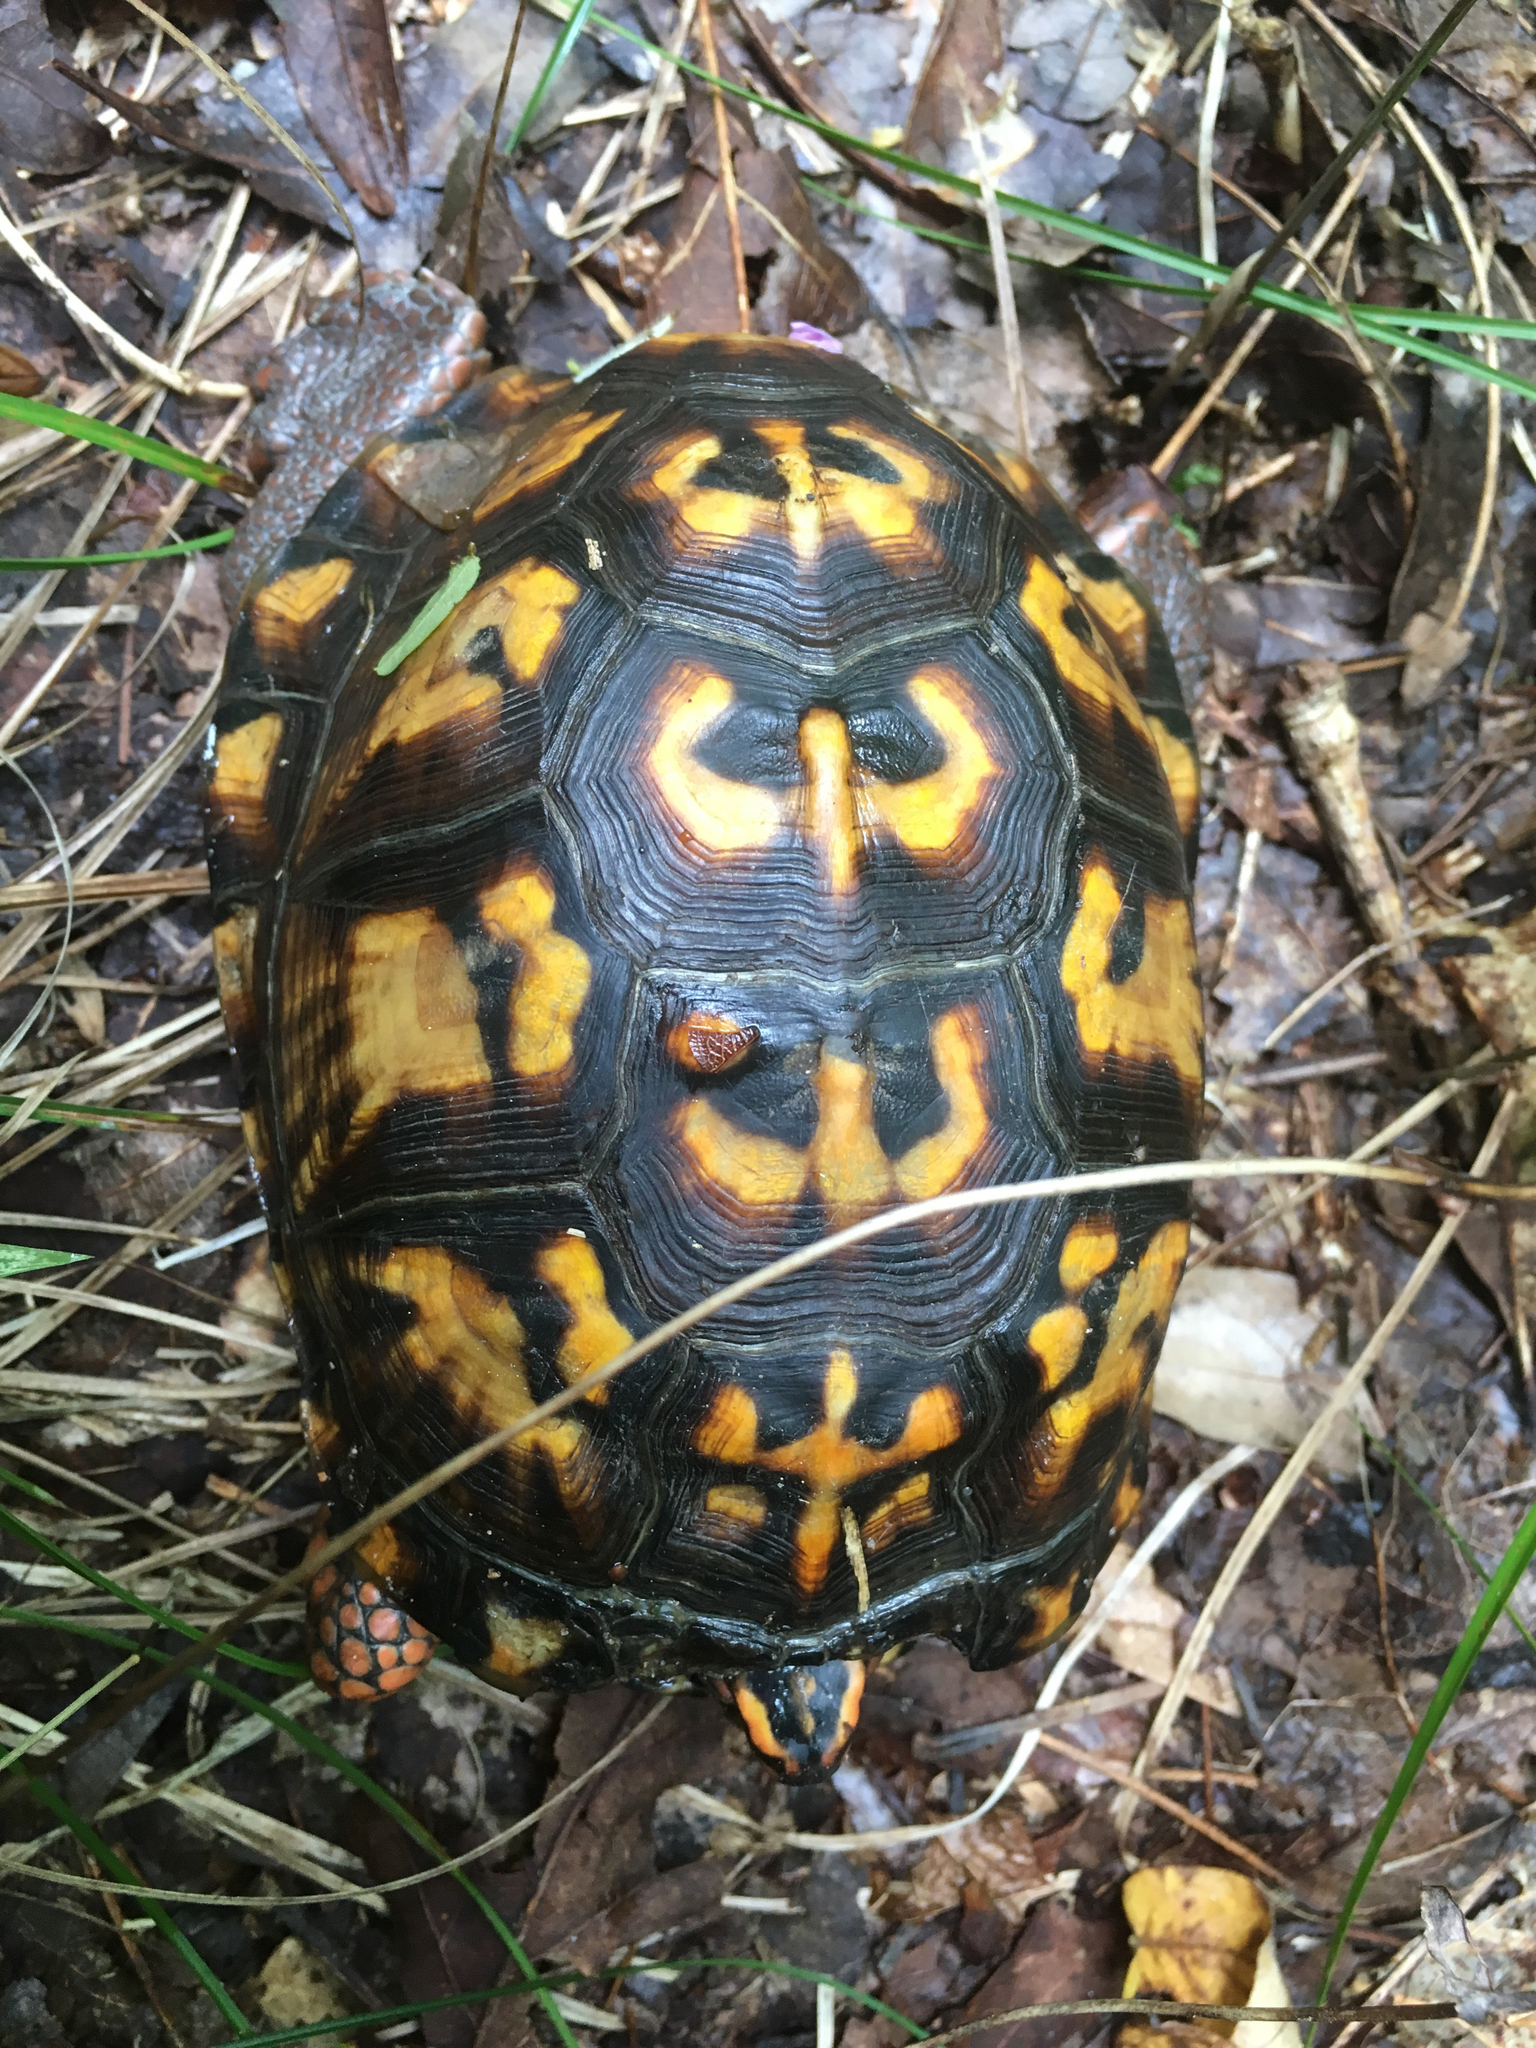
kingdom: Animalia
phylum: Chordata
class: Testudines
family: Emydidae
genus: Terrapene
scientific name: Terrapene carolina
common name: Common box turtle
